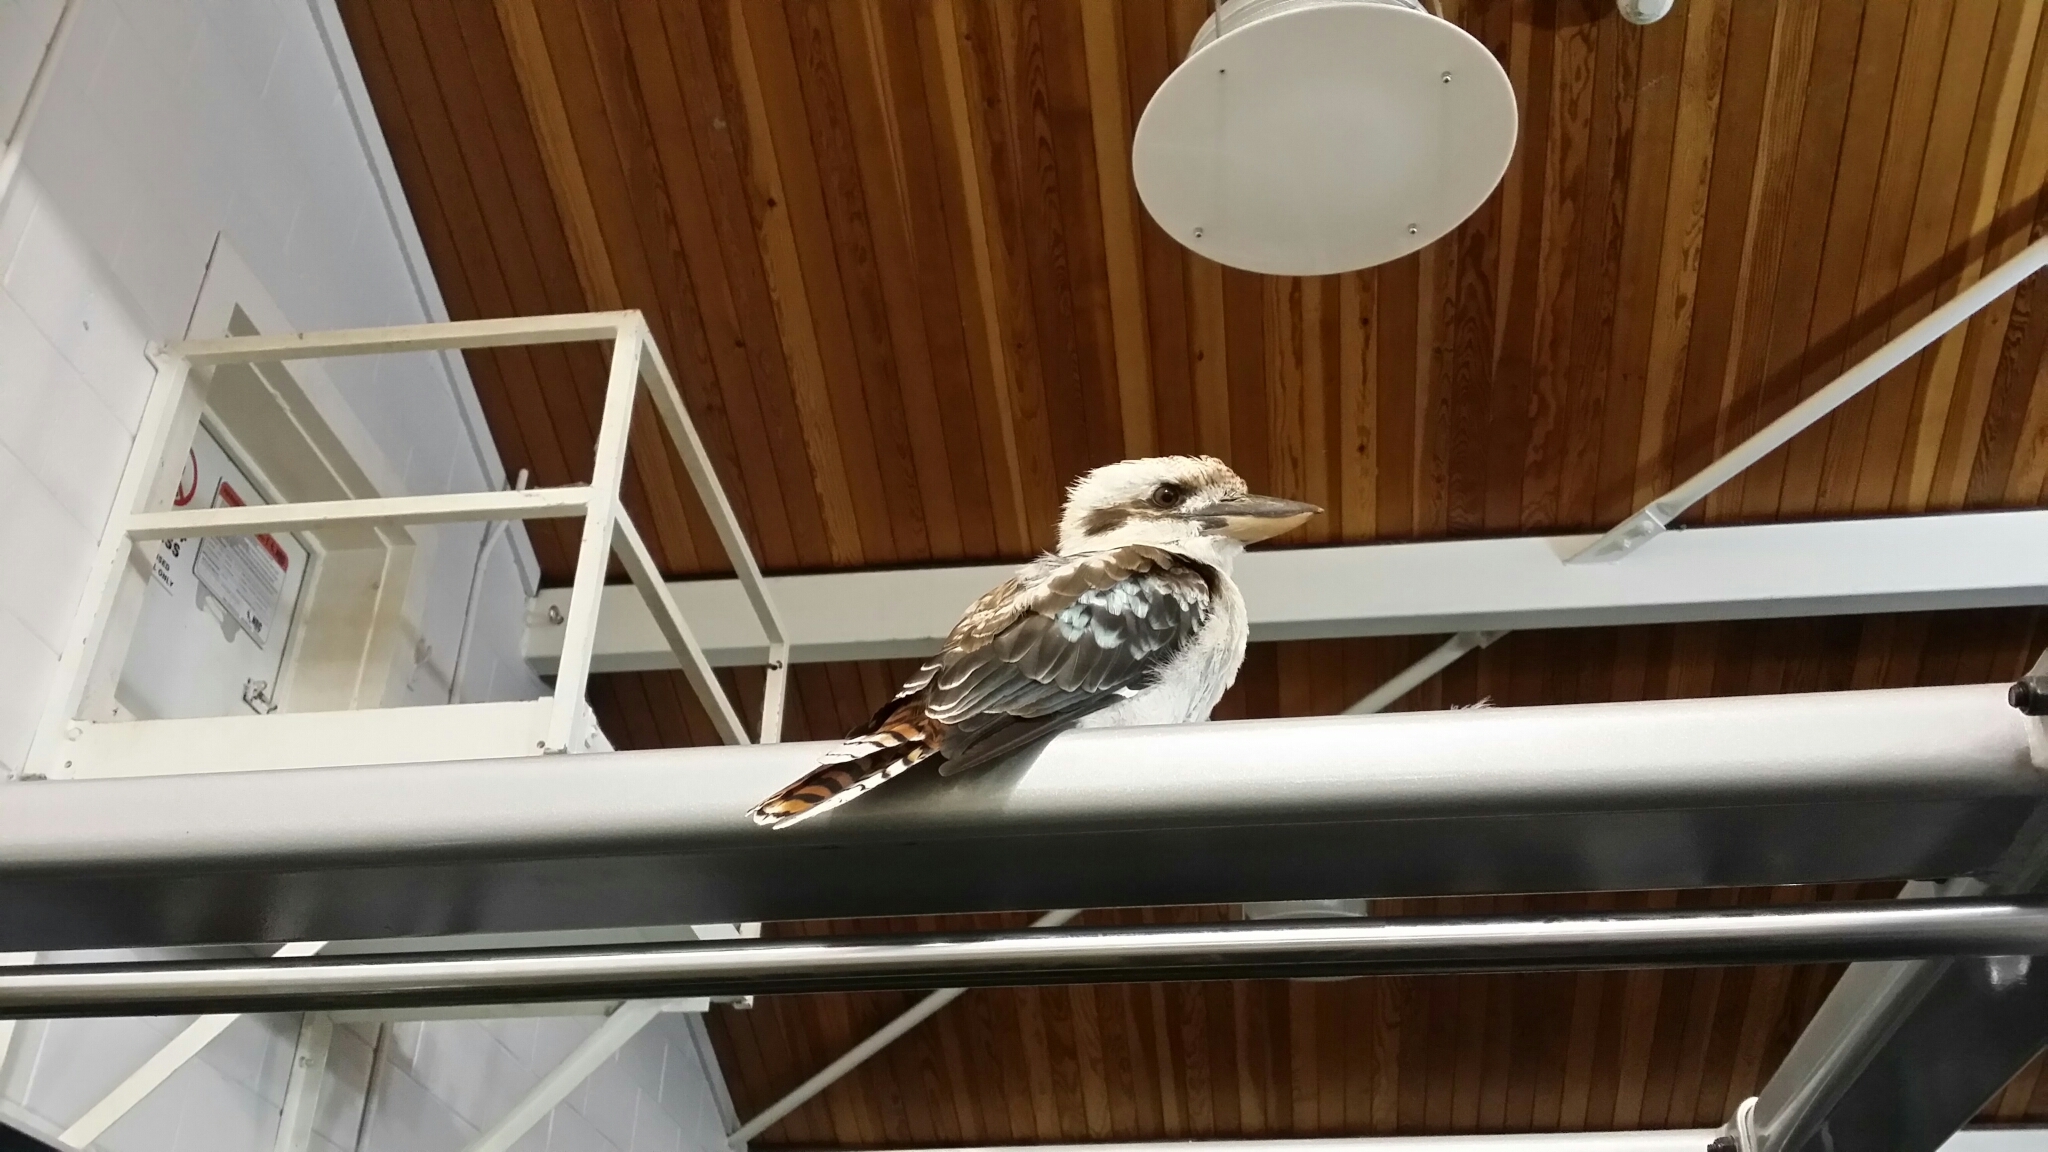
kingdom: Animalia
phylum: Chordata
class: Aves
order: Coraciiformes
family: Alcedinidae
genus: Dacelo
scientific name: Dacelo novaeguineae
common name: Laughing kookaburra
